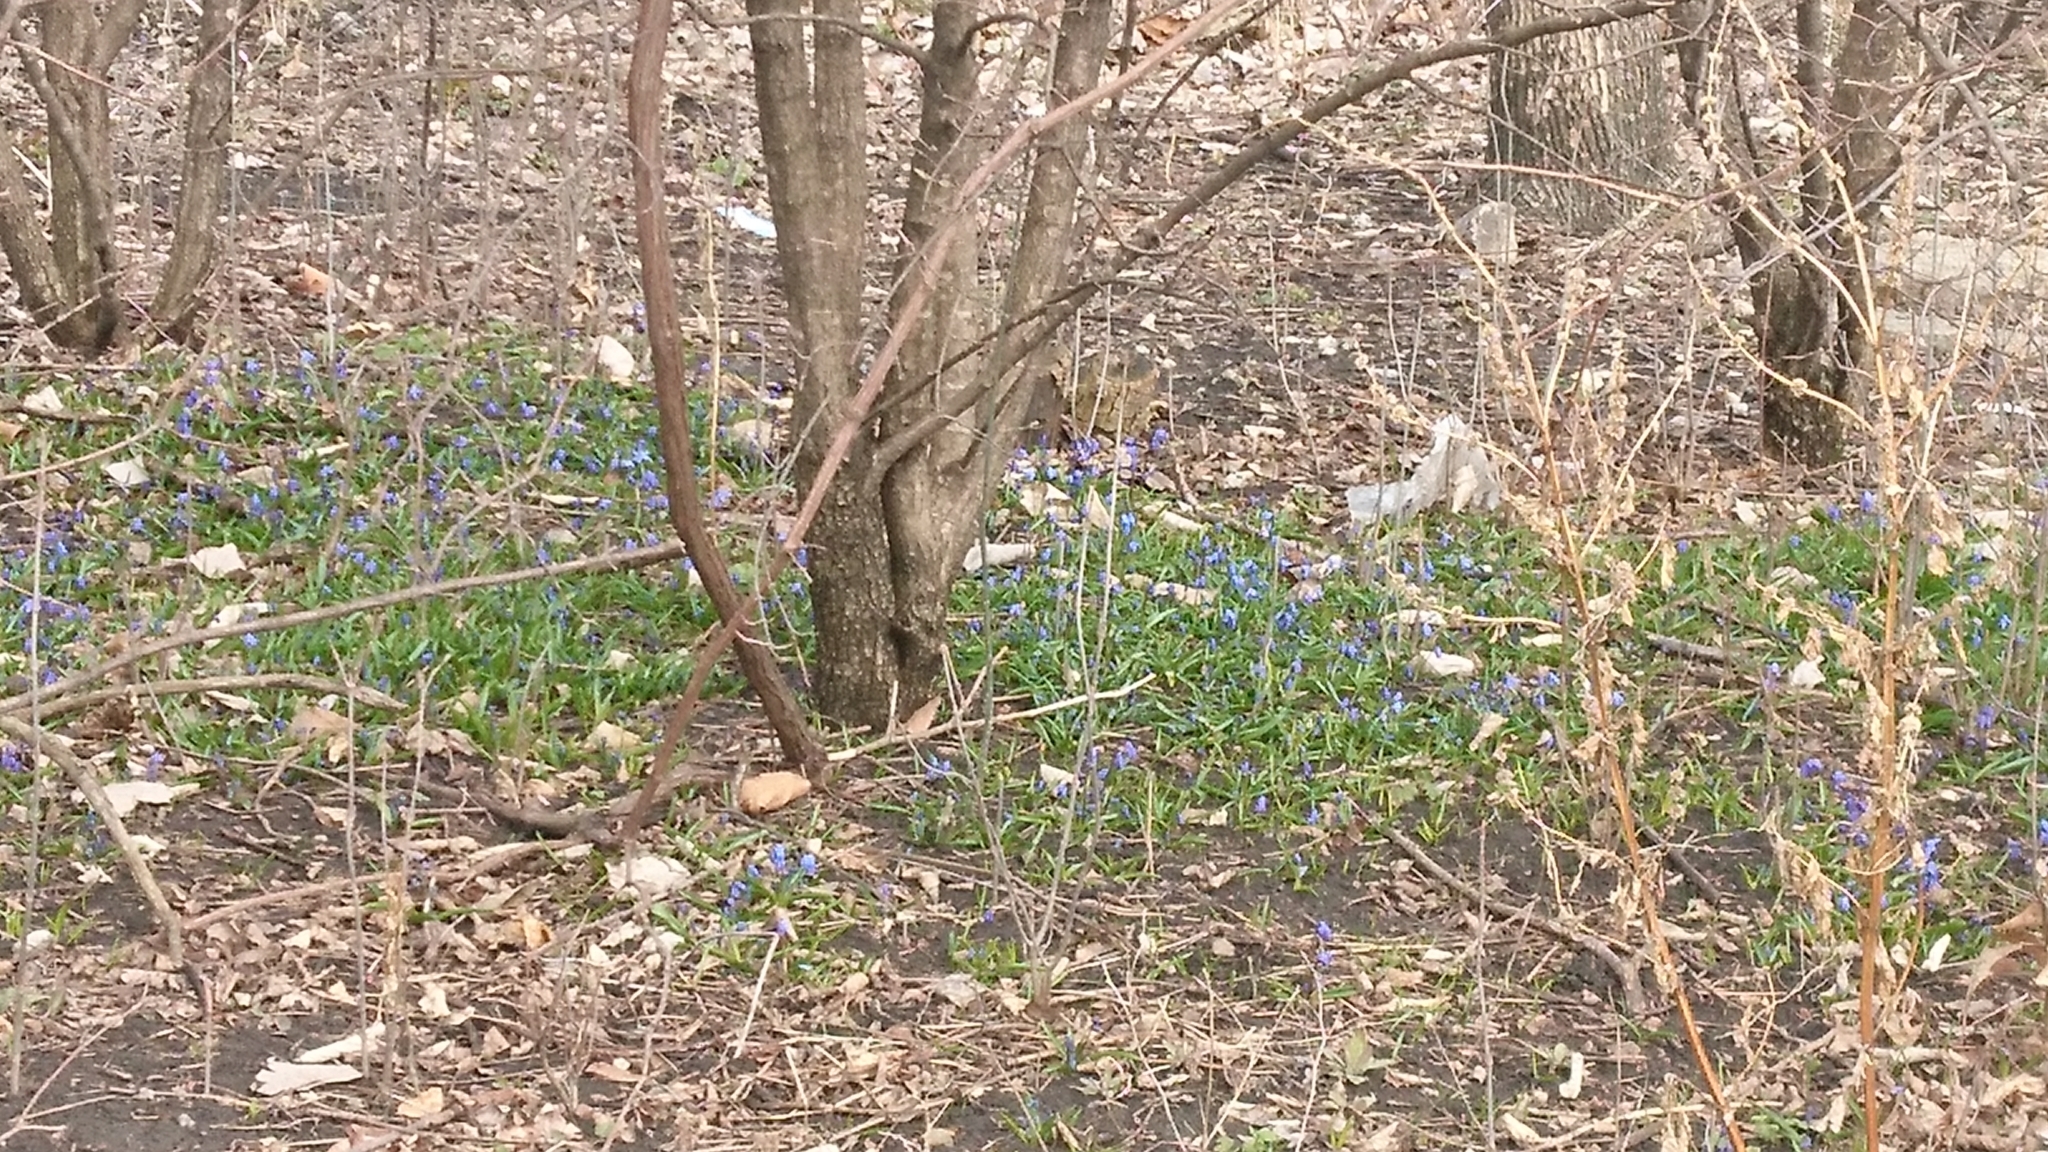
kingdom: Plantae
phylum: Tracheophyta
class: Liliopsida
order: Asparagales
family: Asparagaceae
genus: Scilla
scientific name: Scilla siberica
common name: Siberian squill
